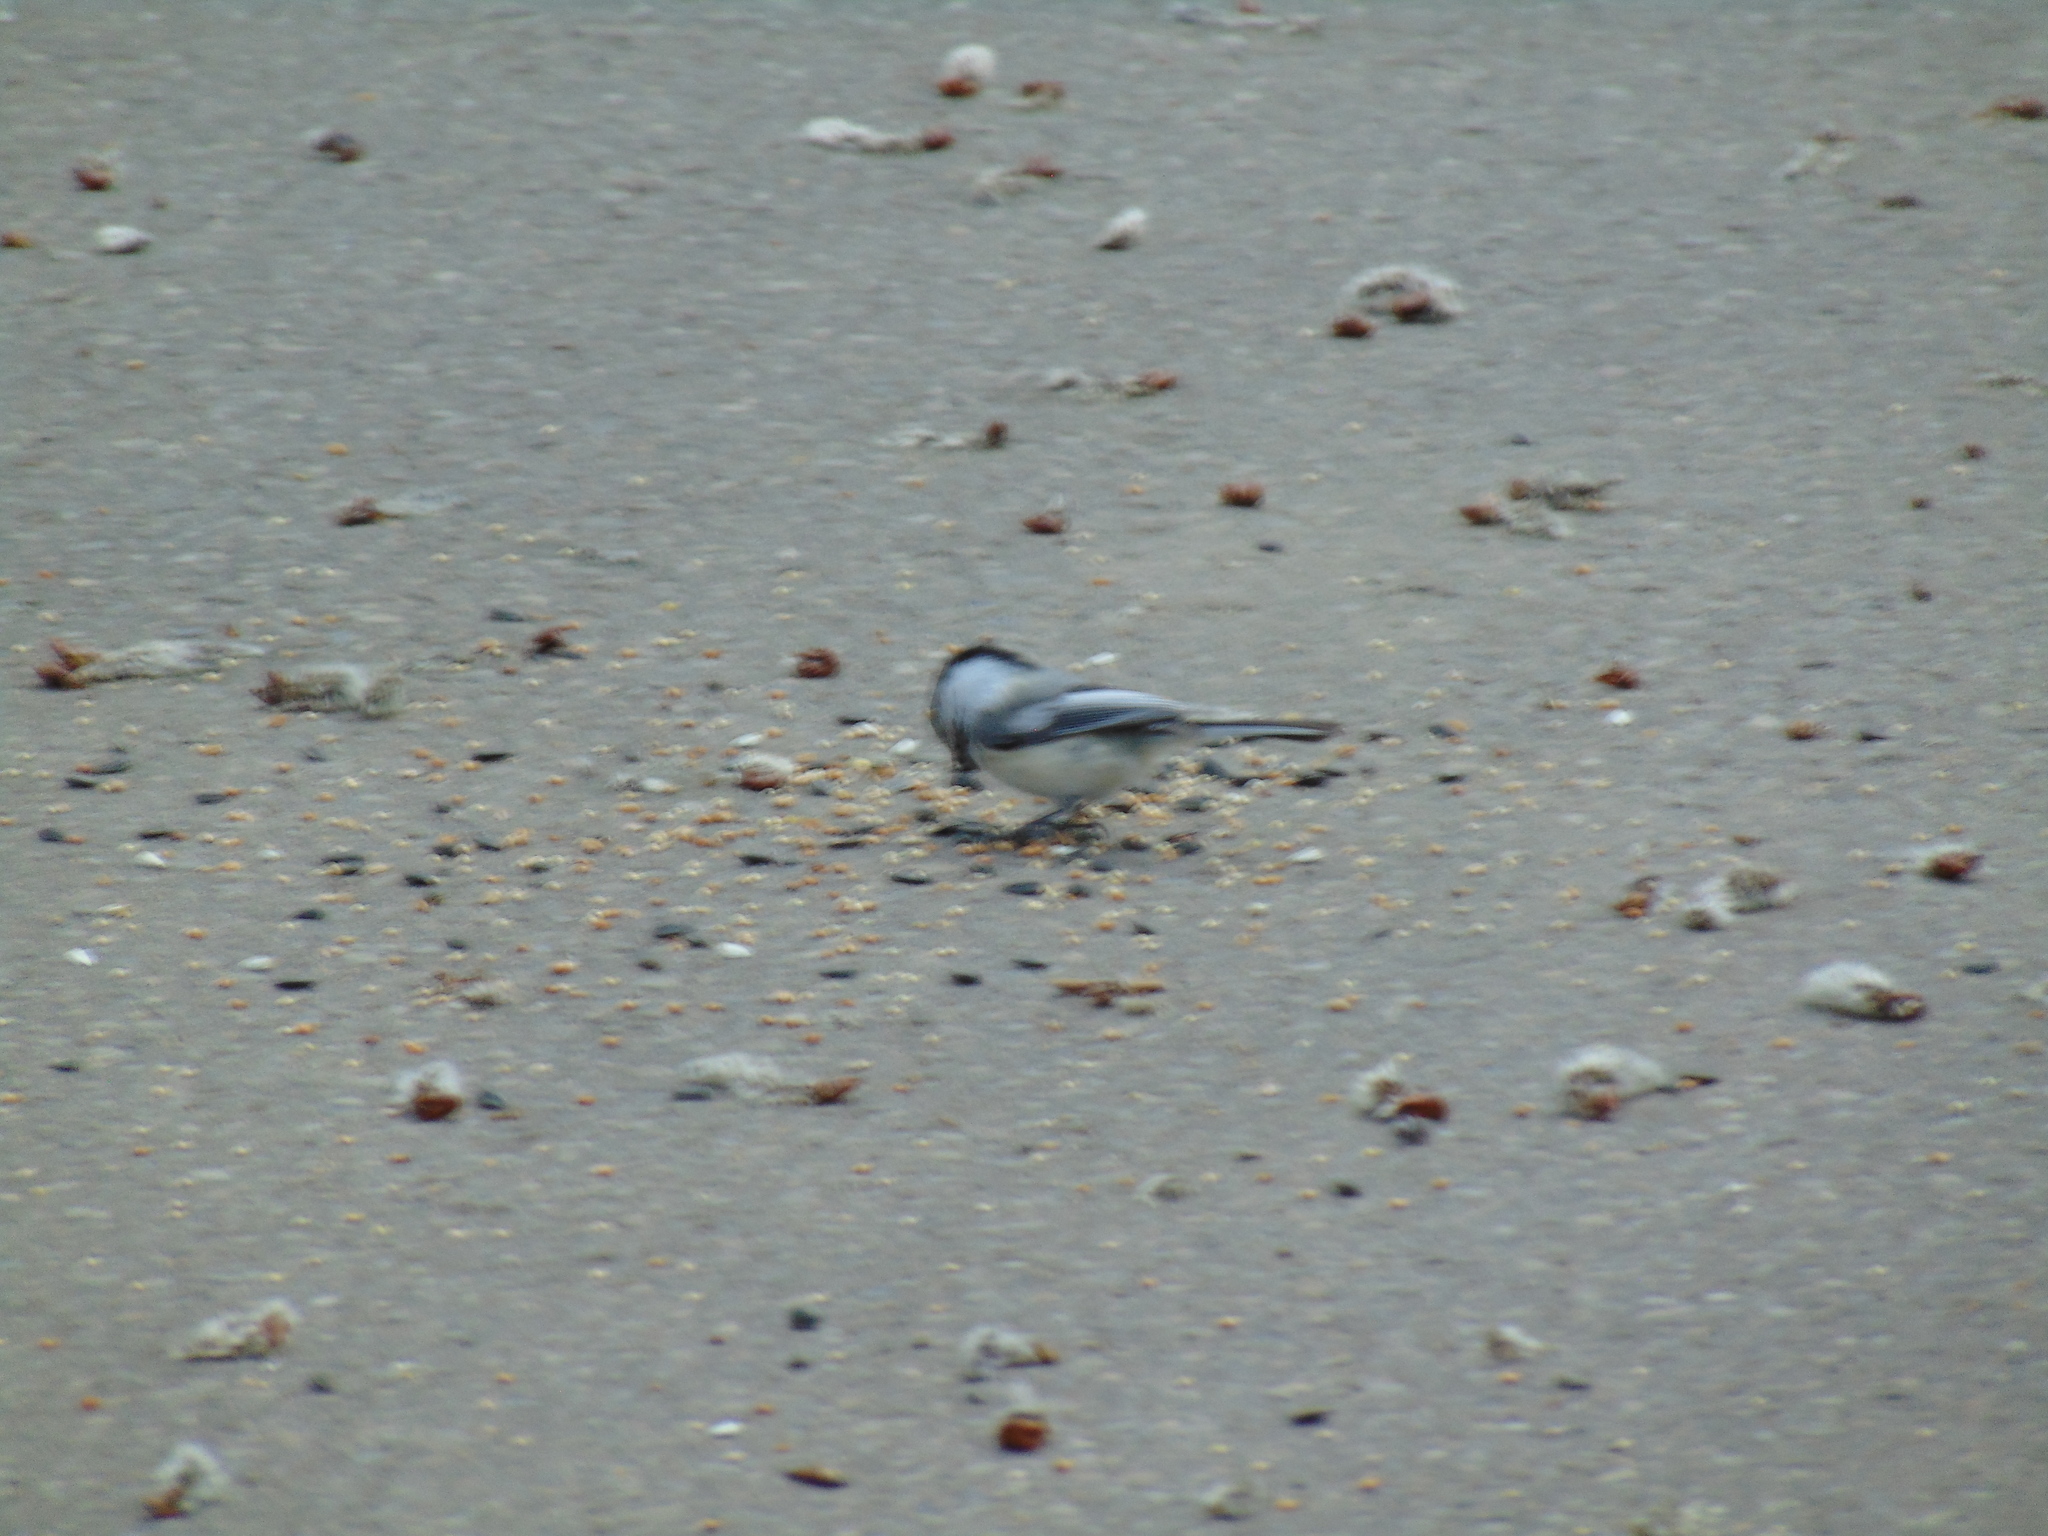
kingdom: Animalia
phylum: Chordata
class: Aves
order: Passeriformes
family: Paridae
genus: Poecile
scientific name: Poecile atricapillus
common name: Black-capped chickadee
